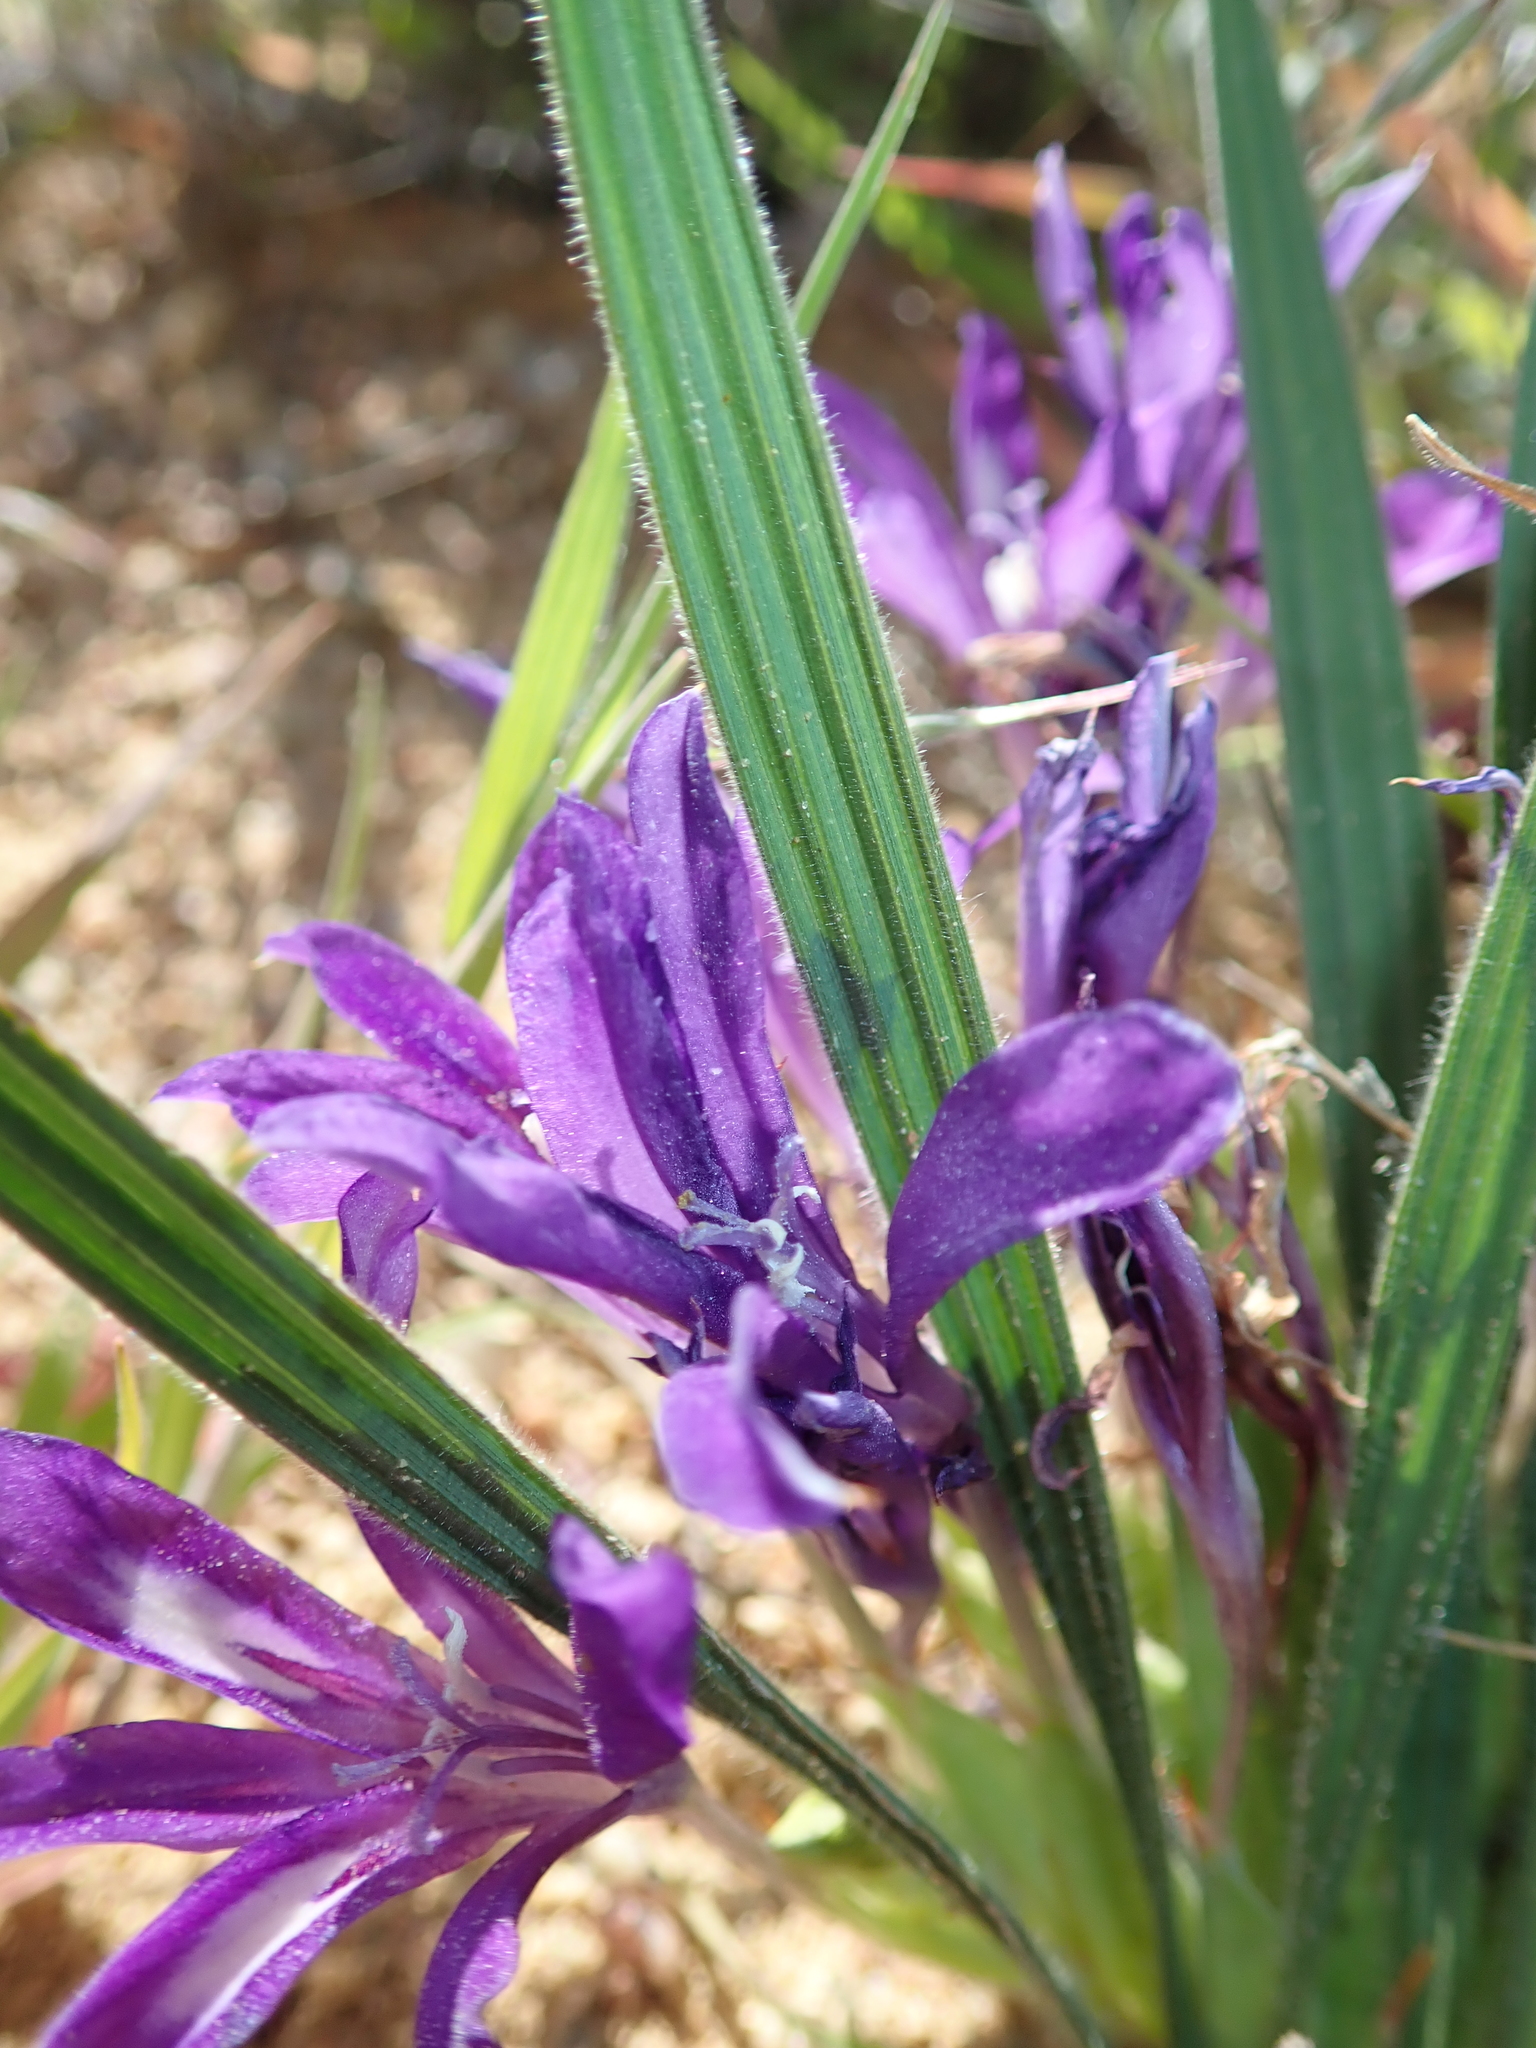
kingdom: Plantae
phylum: Tracheophyta
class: Liliopsida
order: Asparagales
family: Iridaceae
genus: Babiana
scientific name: Babiana attenuata
